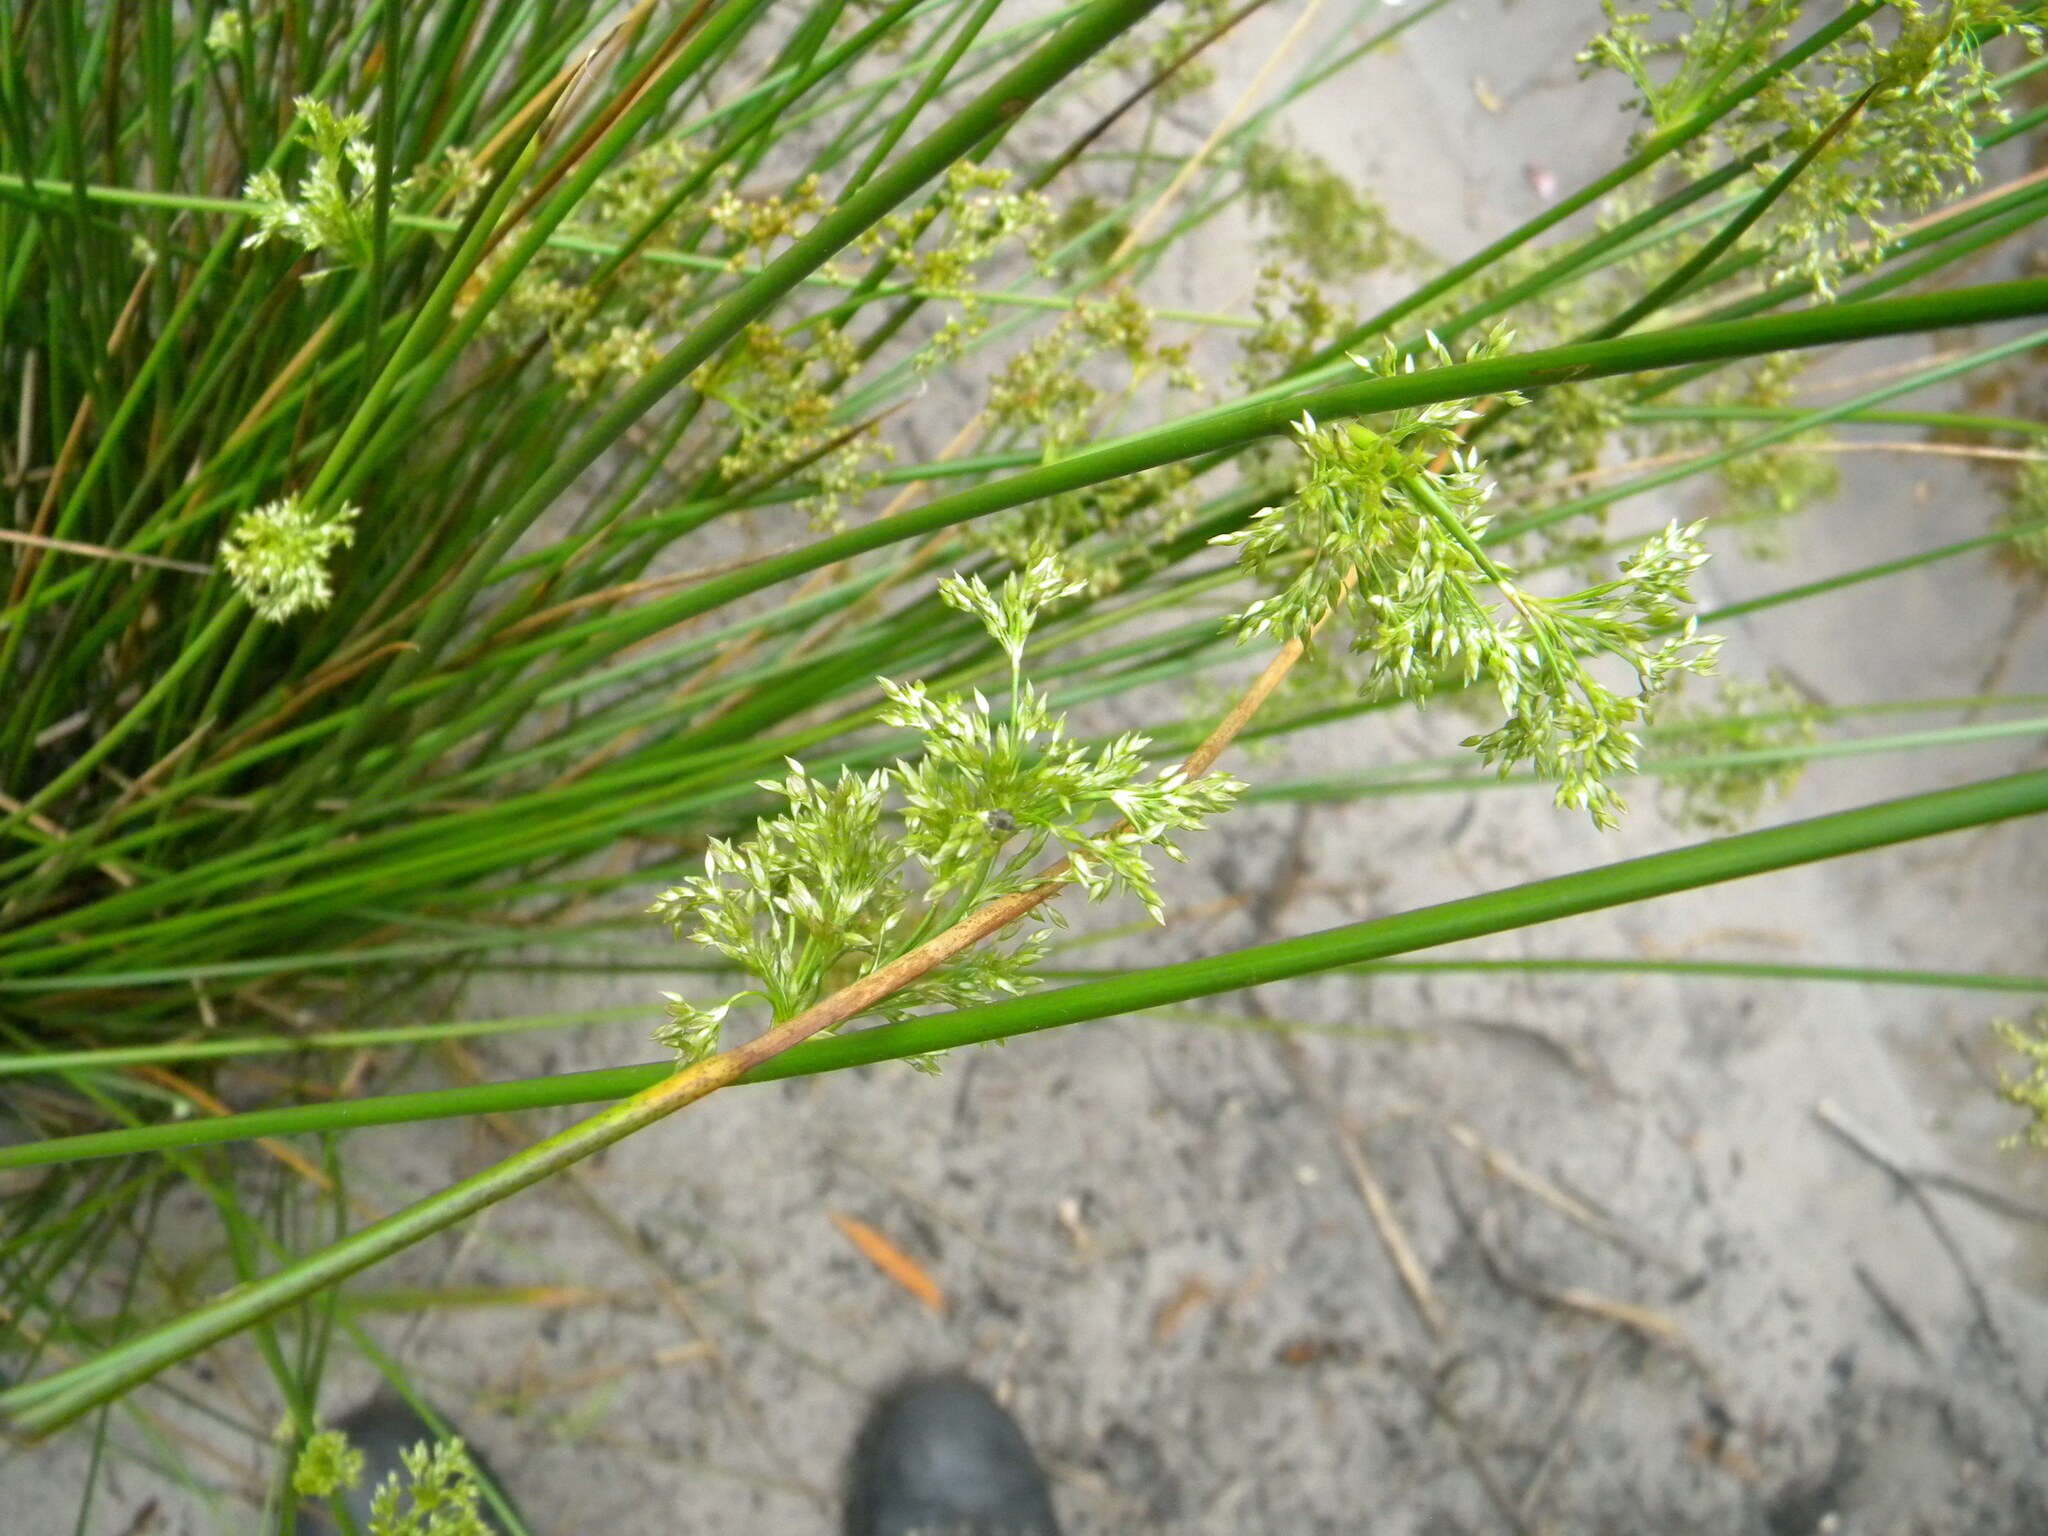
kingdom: Plantae
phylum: Tracheophyta
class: Liliopsida
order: Poales
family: Juncaceae
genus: Juncus
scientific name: Juncus effusus
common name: Soft rush
